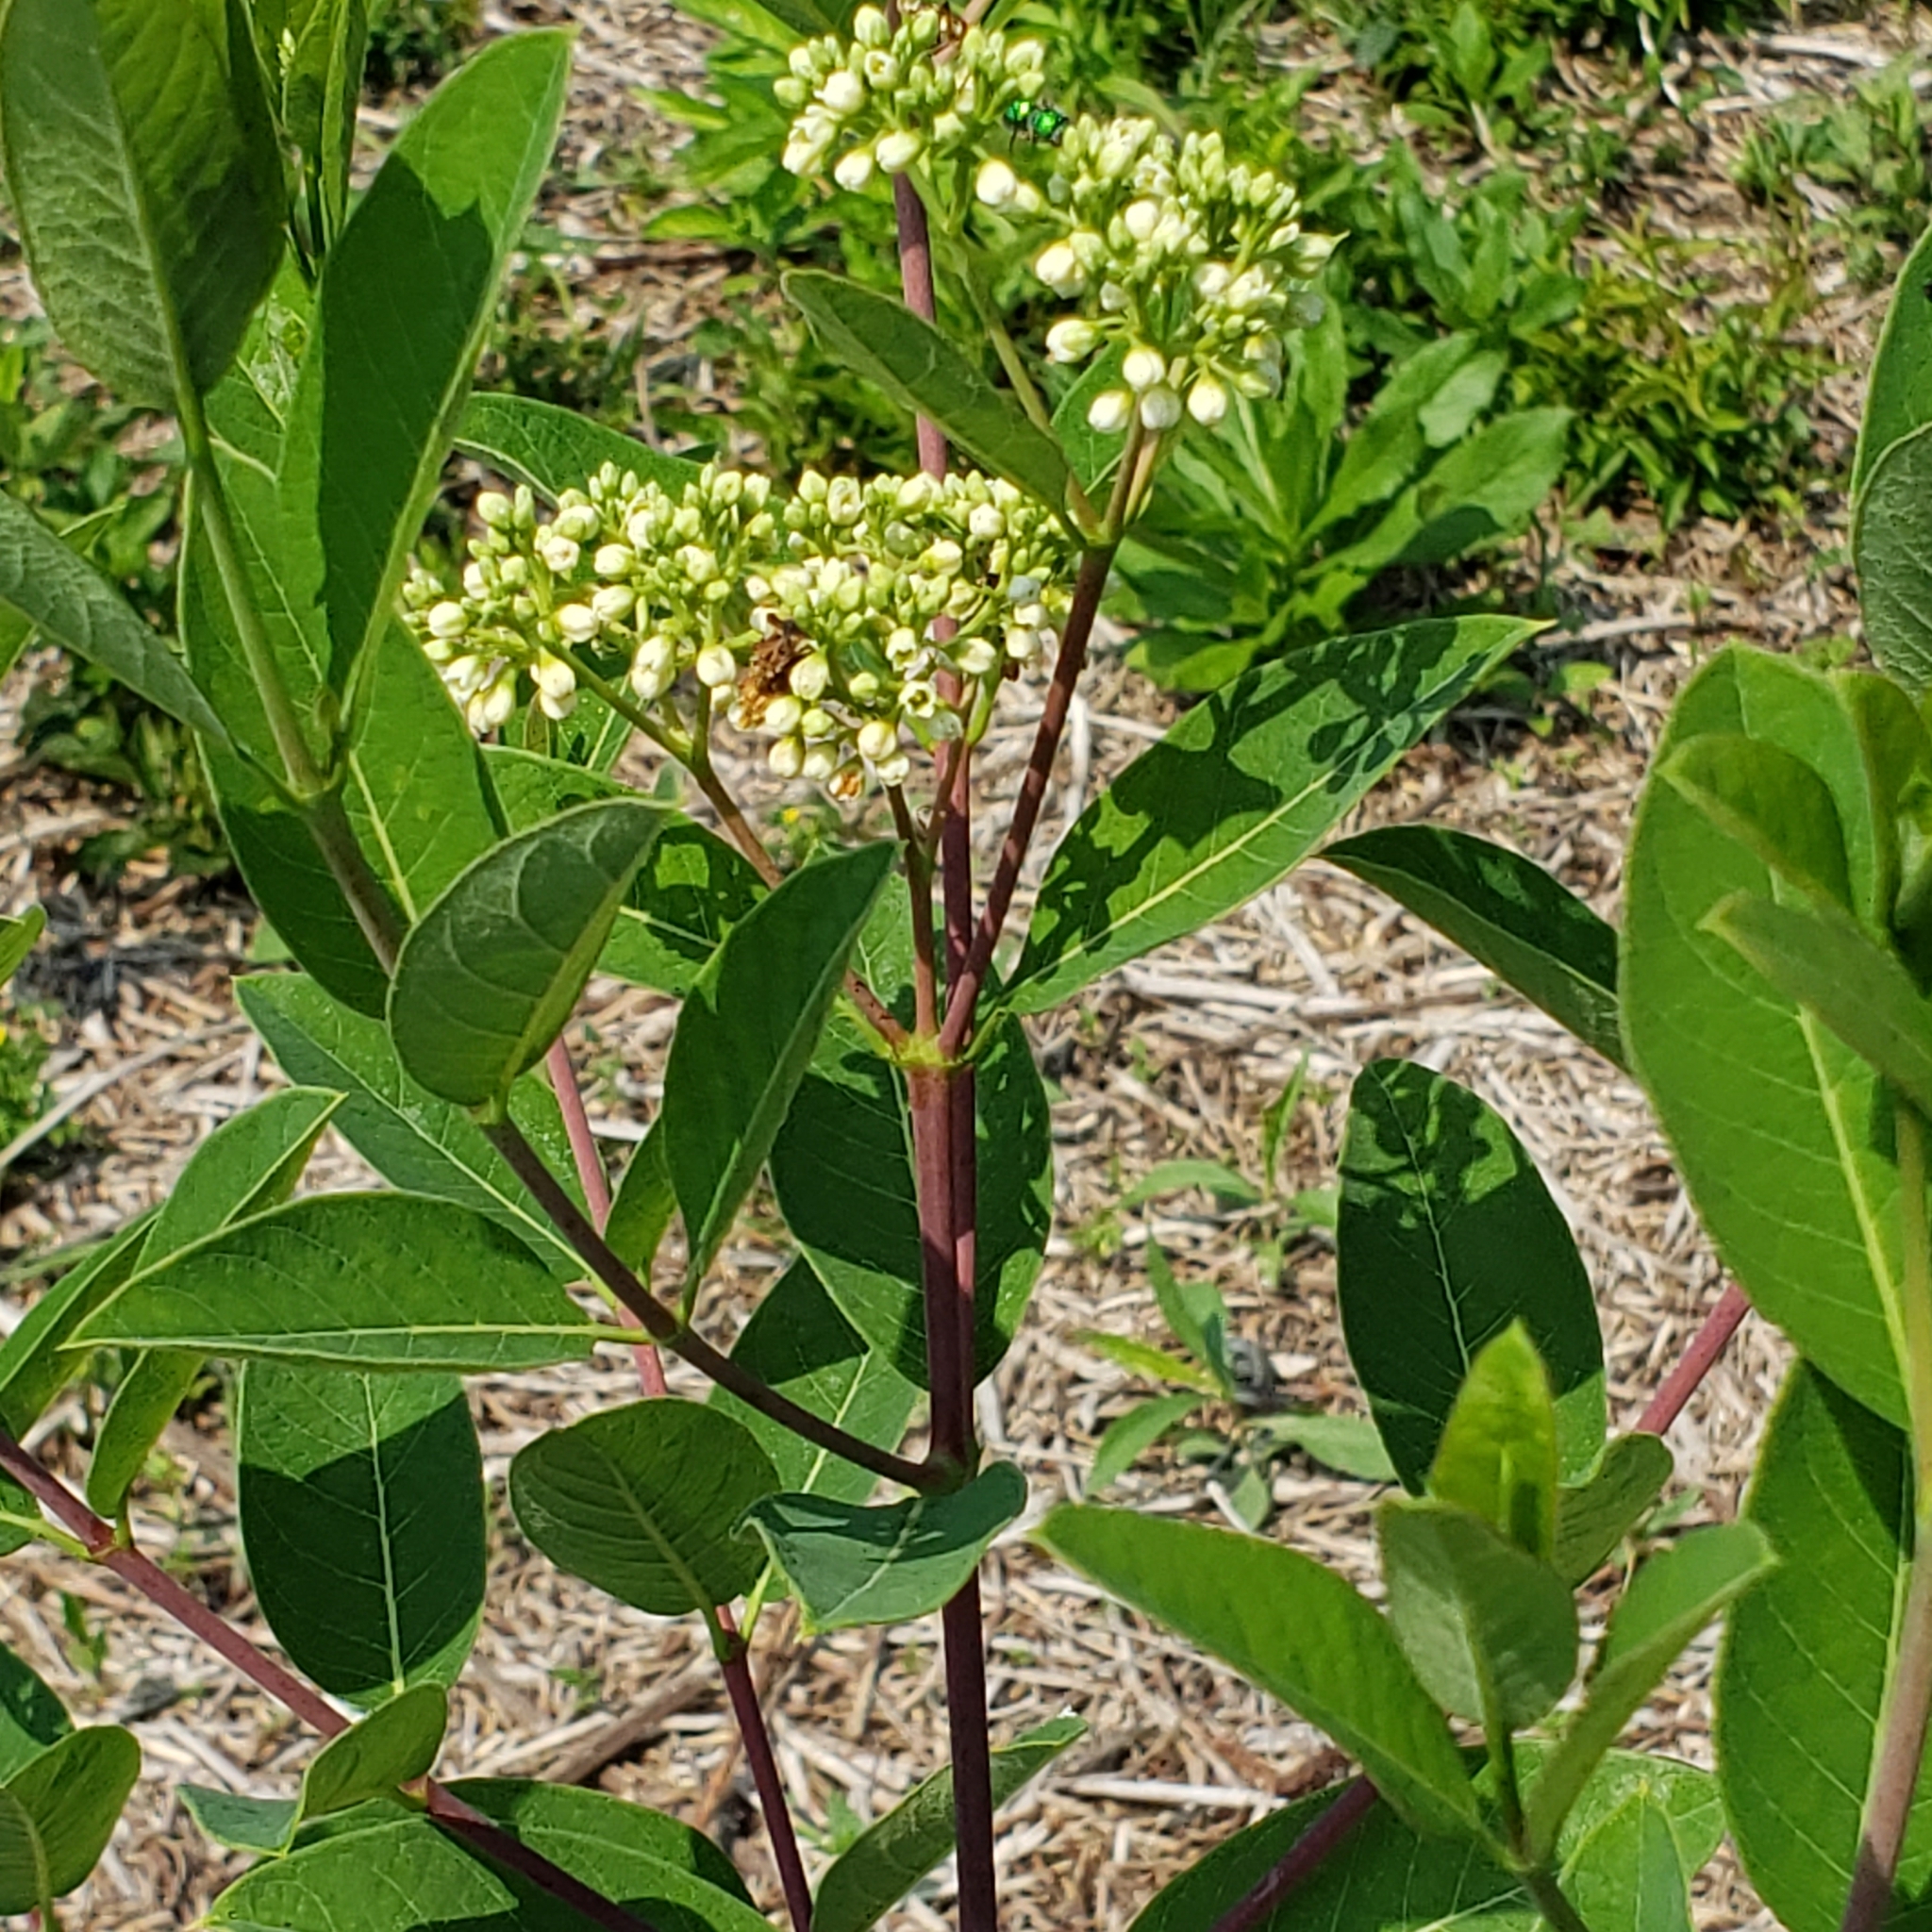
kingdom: Plantae
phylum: Tracheophyta
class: Magnoliopsida
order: Gentianales
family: Apocynaceae
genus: Apocynum
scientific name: Apocynum cannabinum
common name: Hemp dogbane
